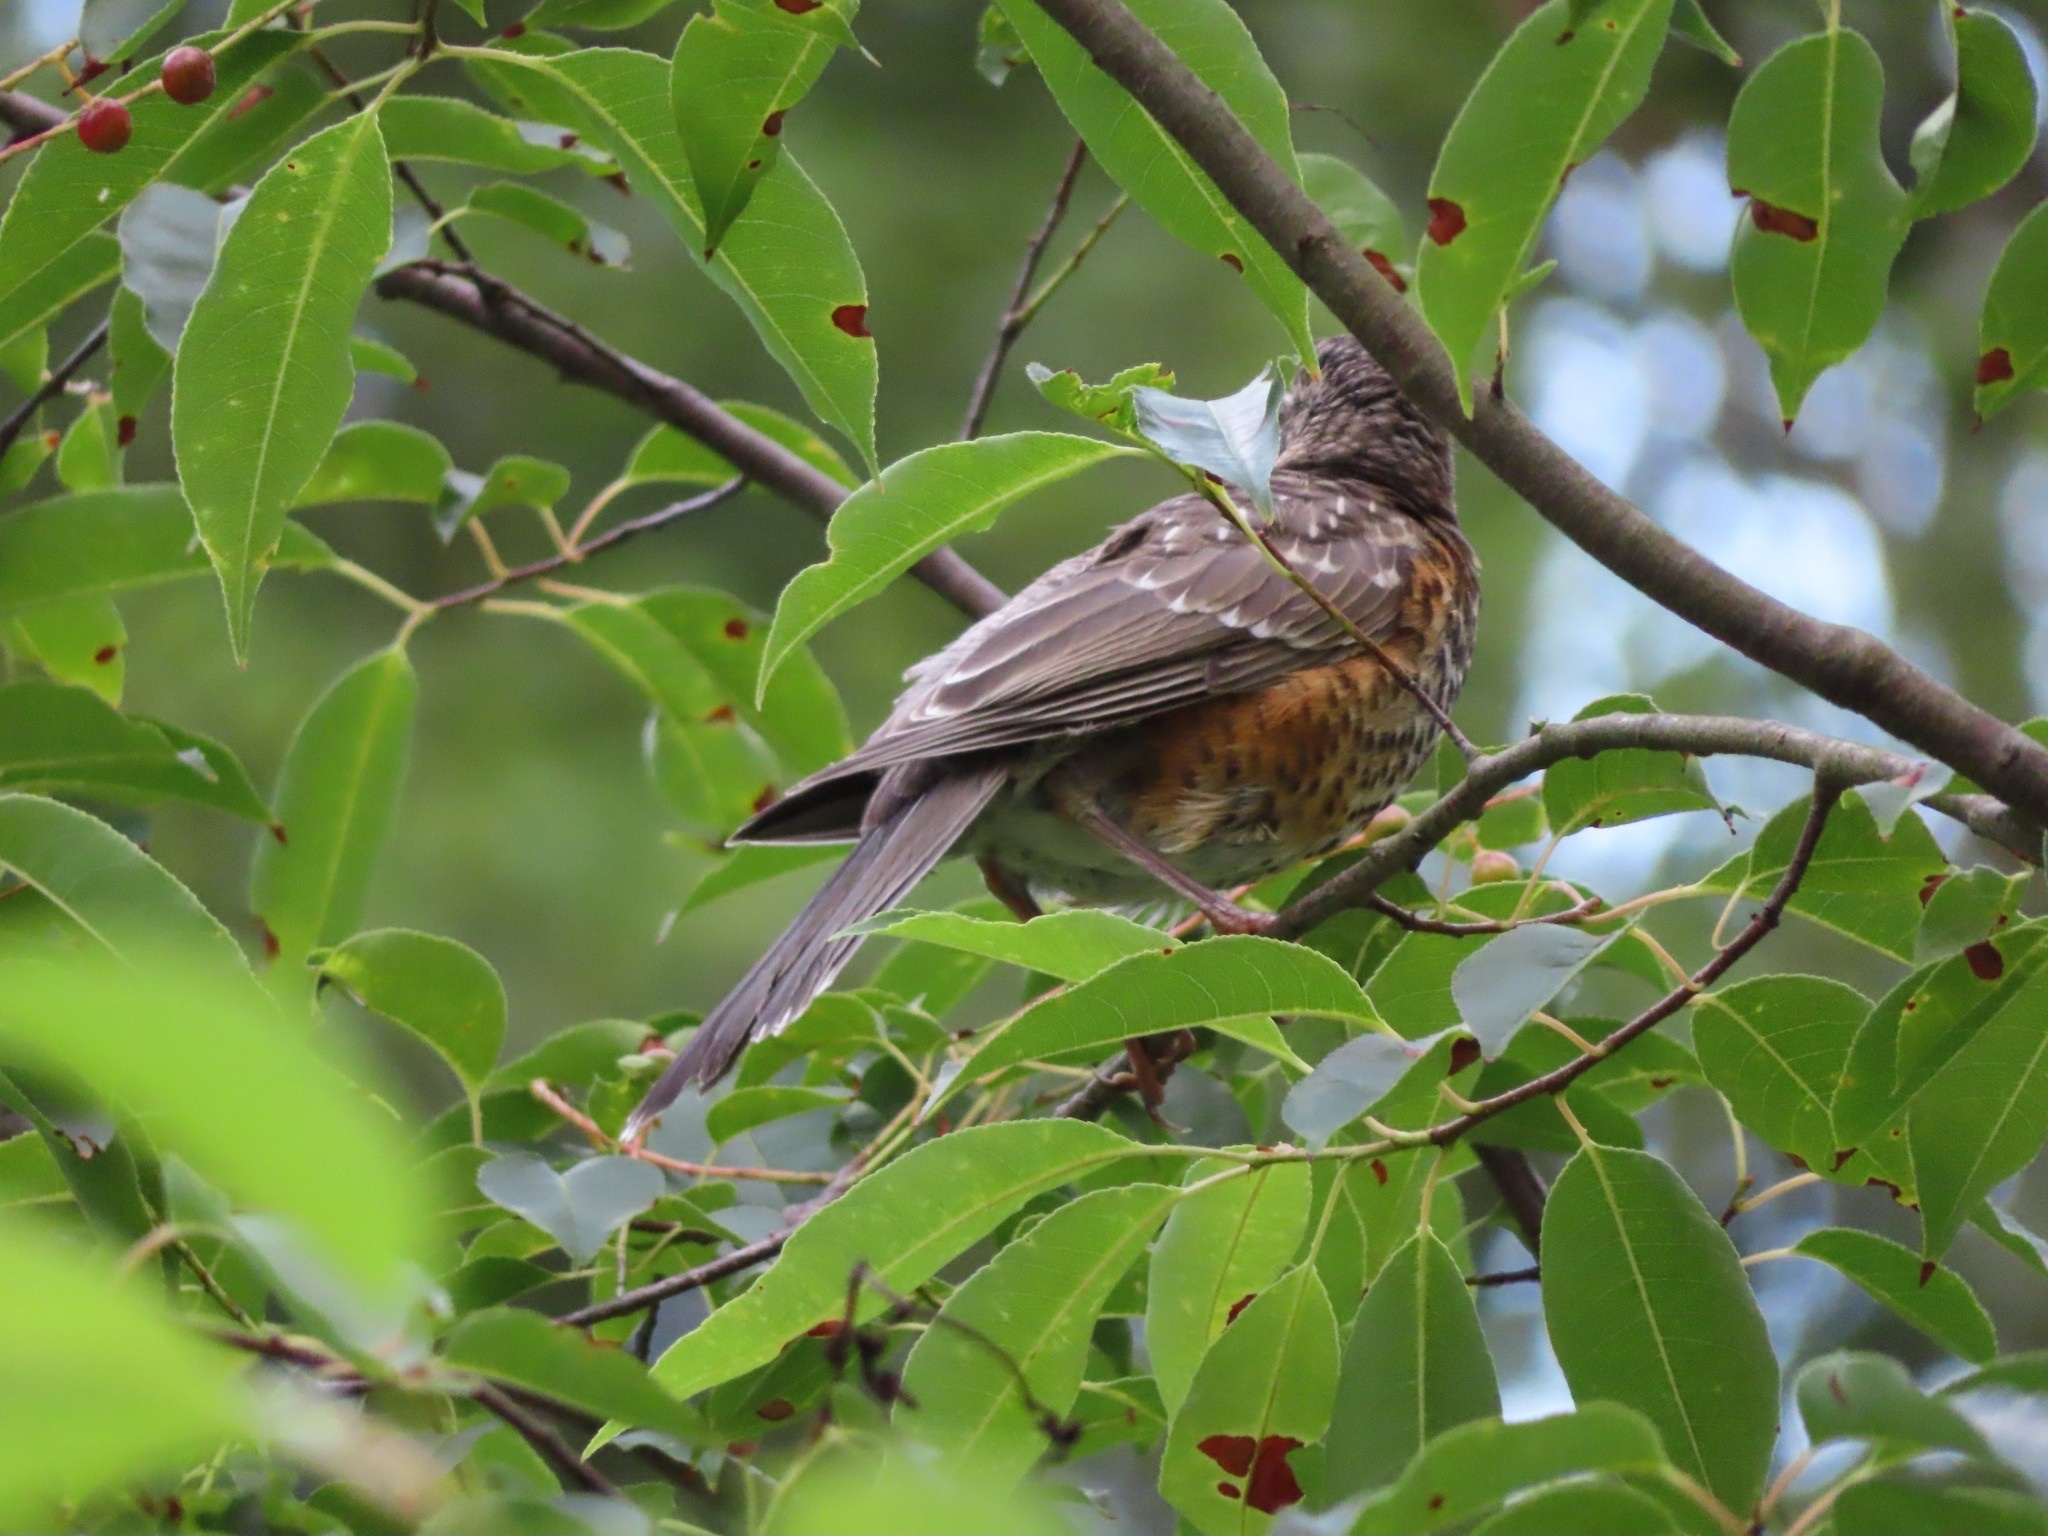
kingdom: Animalia
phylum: Chordata
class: Aves
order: Passeriformes
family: Turdidae
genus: Turdus
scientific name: Turdus migratorius
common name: American robin
